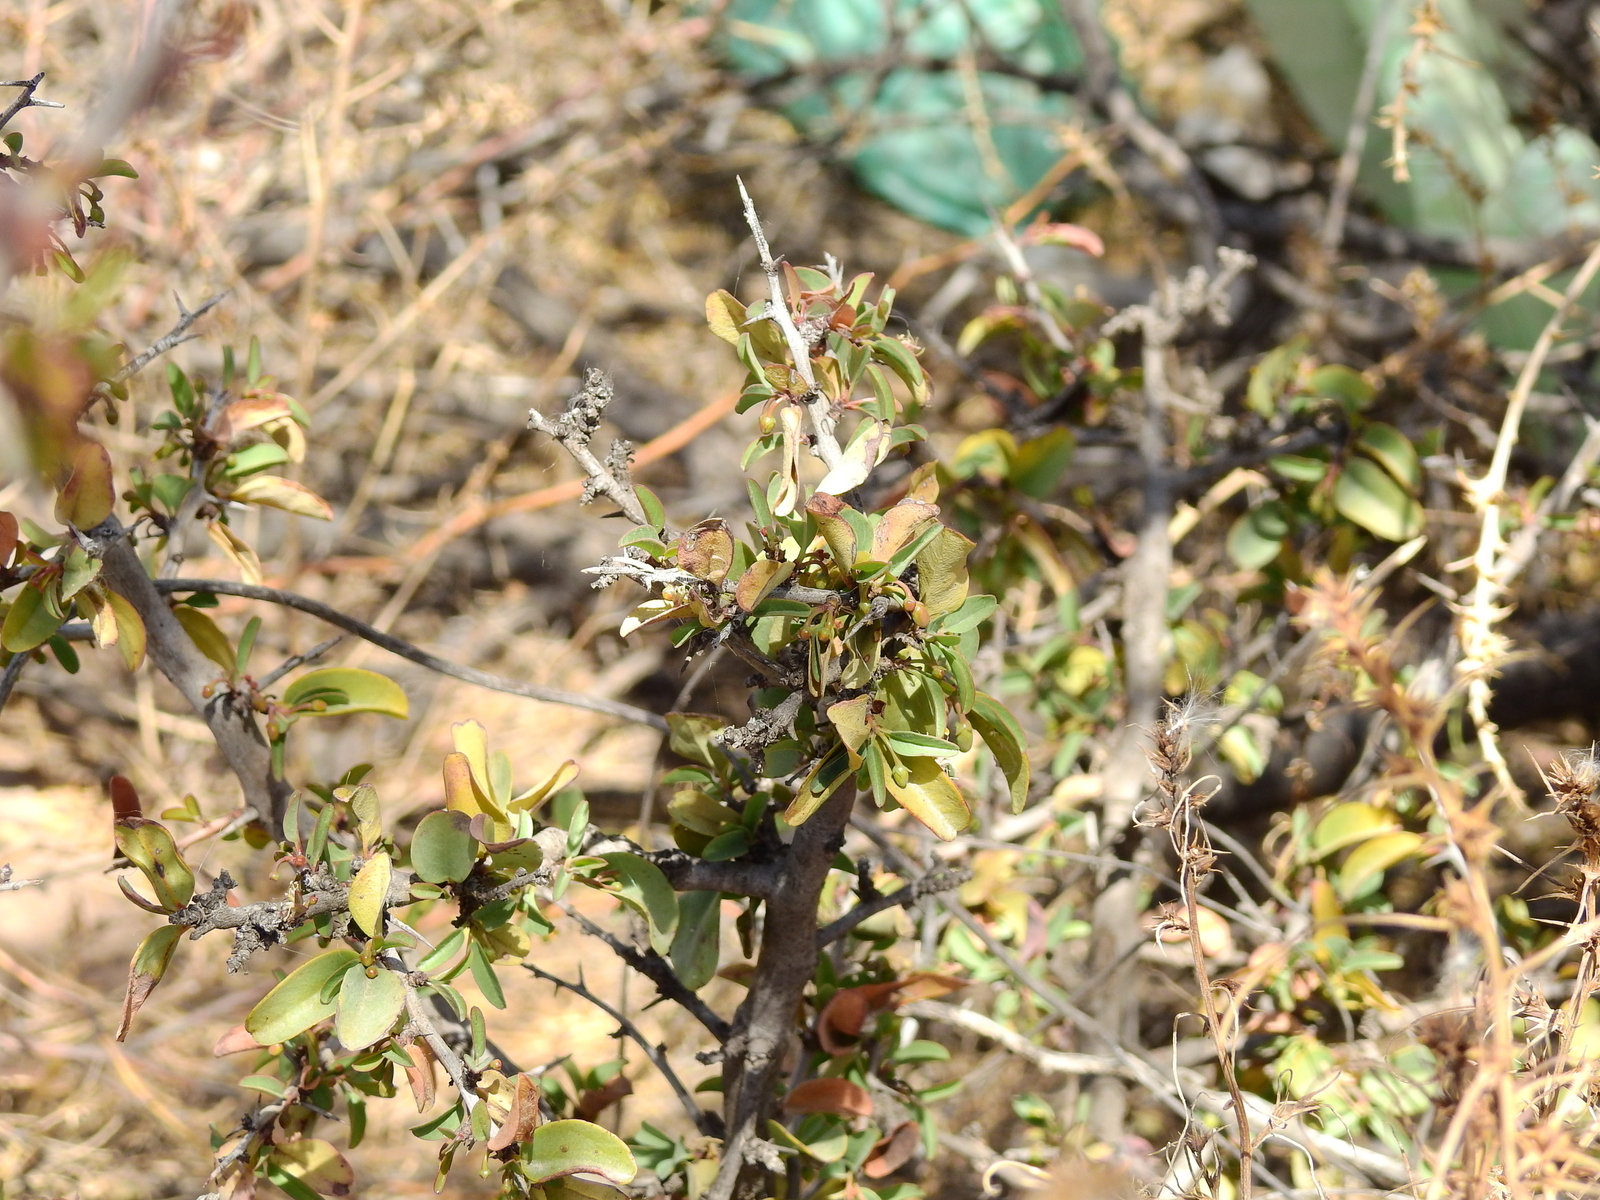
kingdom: Plantae
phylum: Tracheophyta
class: Magnoliopsida
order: Santalales
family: Ximeniaceae
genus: Ximenia
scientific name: Ximenia americana
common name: Tallowwood
